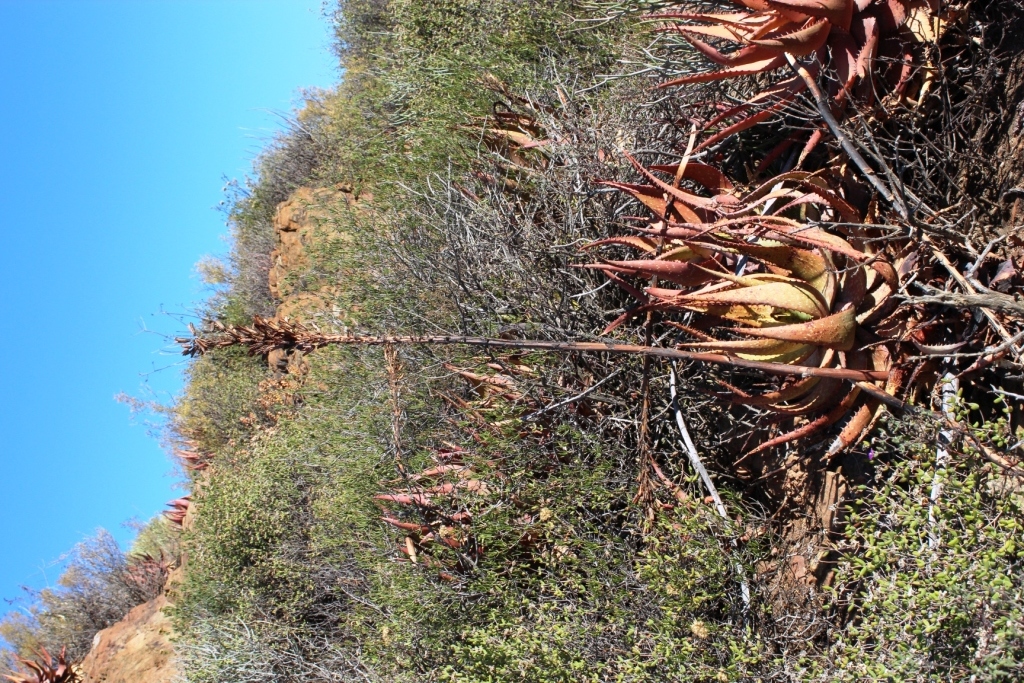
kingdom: Plantae
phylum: Tracheophyta
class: Liliopsida
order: Asparagales
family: Asphodelaceae
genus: Aloe
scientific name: Aloe microstigma
